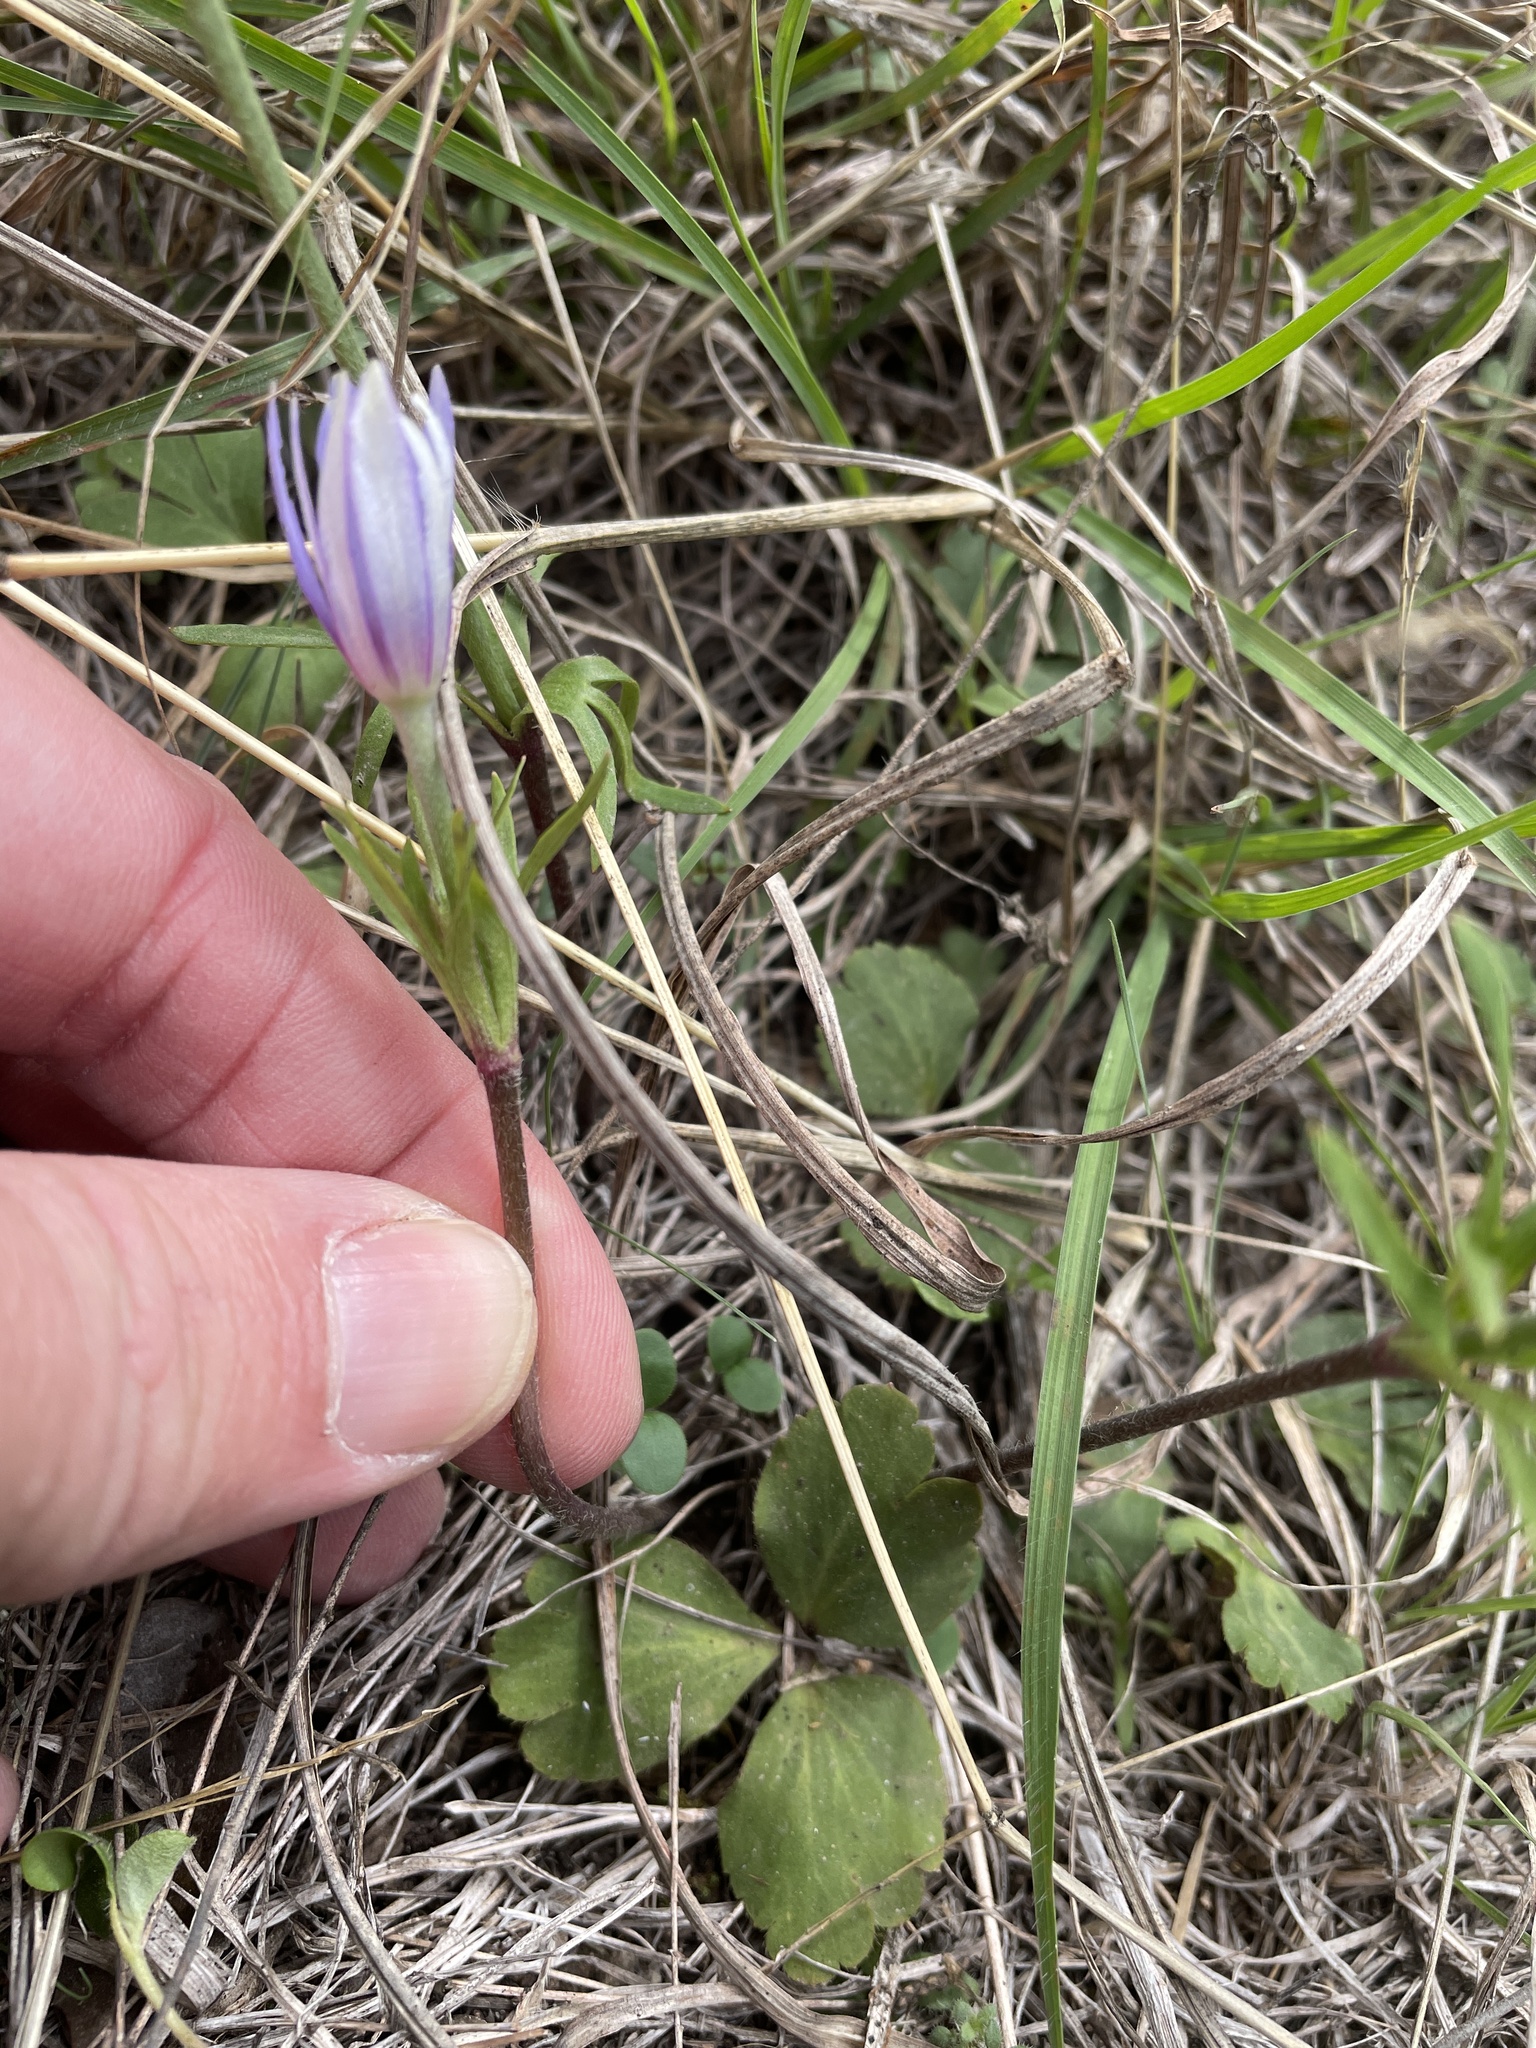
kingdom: Plantae
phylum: Tracheophyta
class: Magnoliopsida
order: Ranunculales
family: Ranunculaceae
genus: Anemone
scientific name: Anemone berlandieri
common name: Ten-petal anemone
